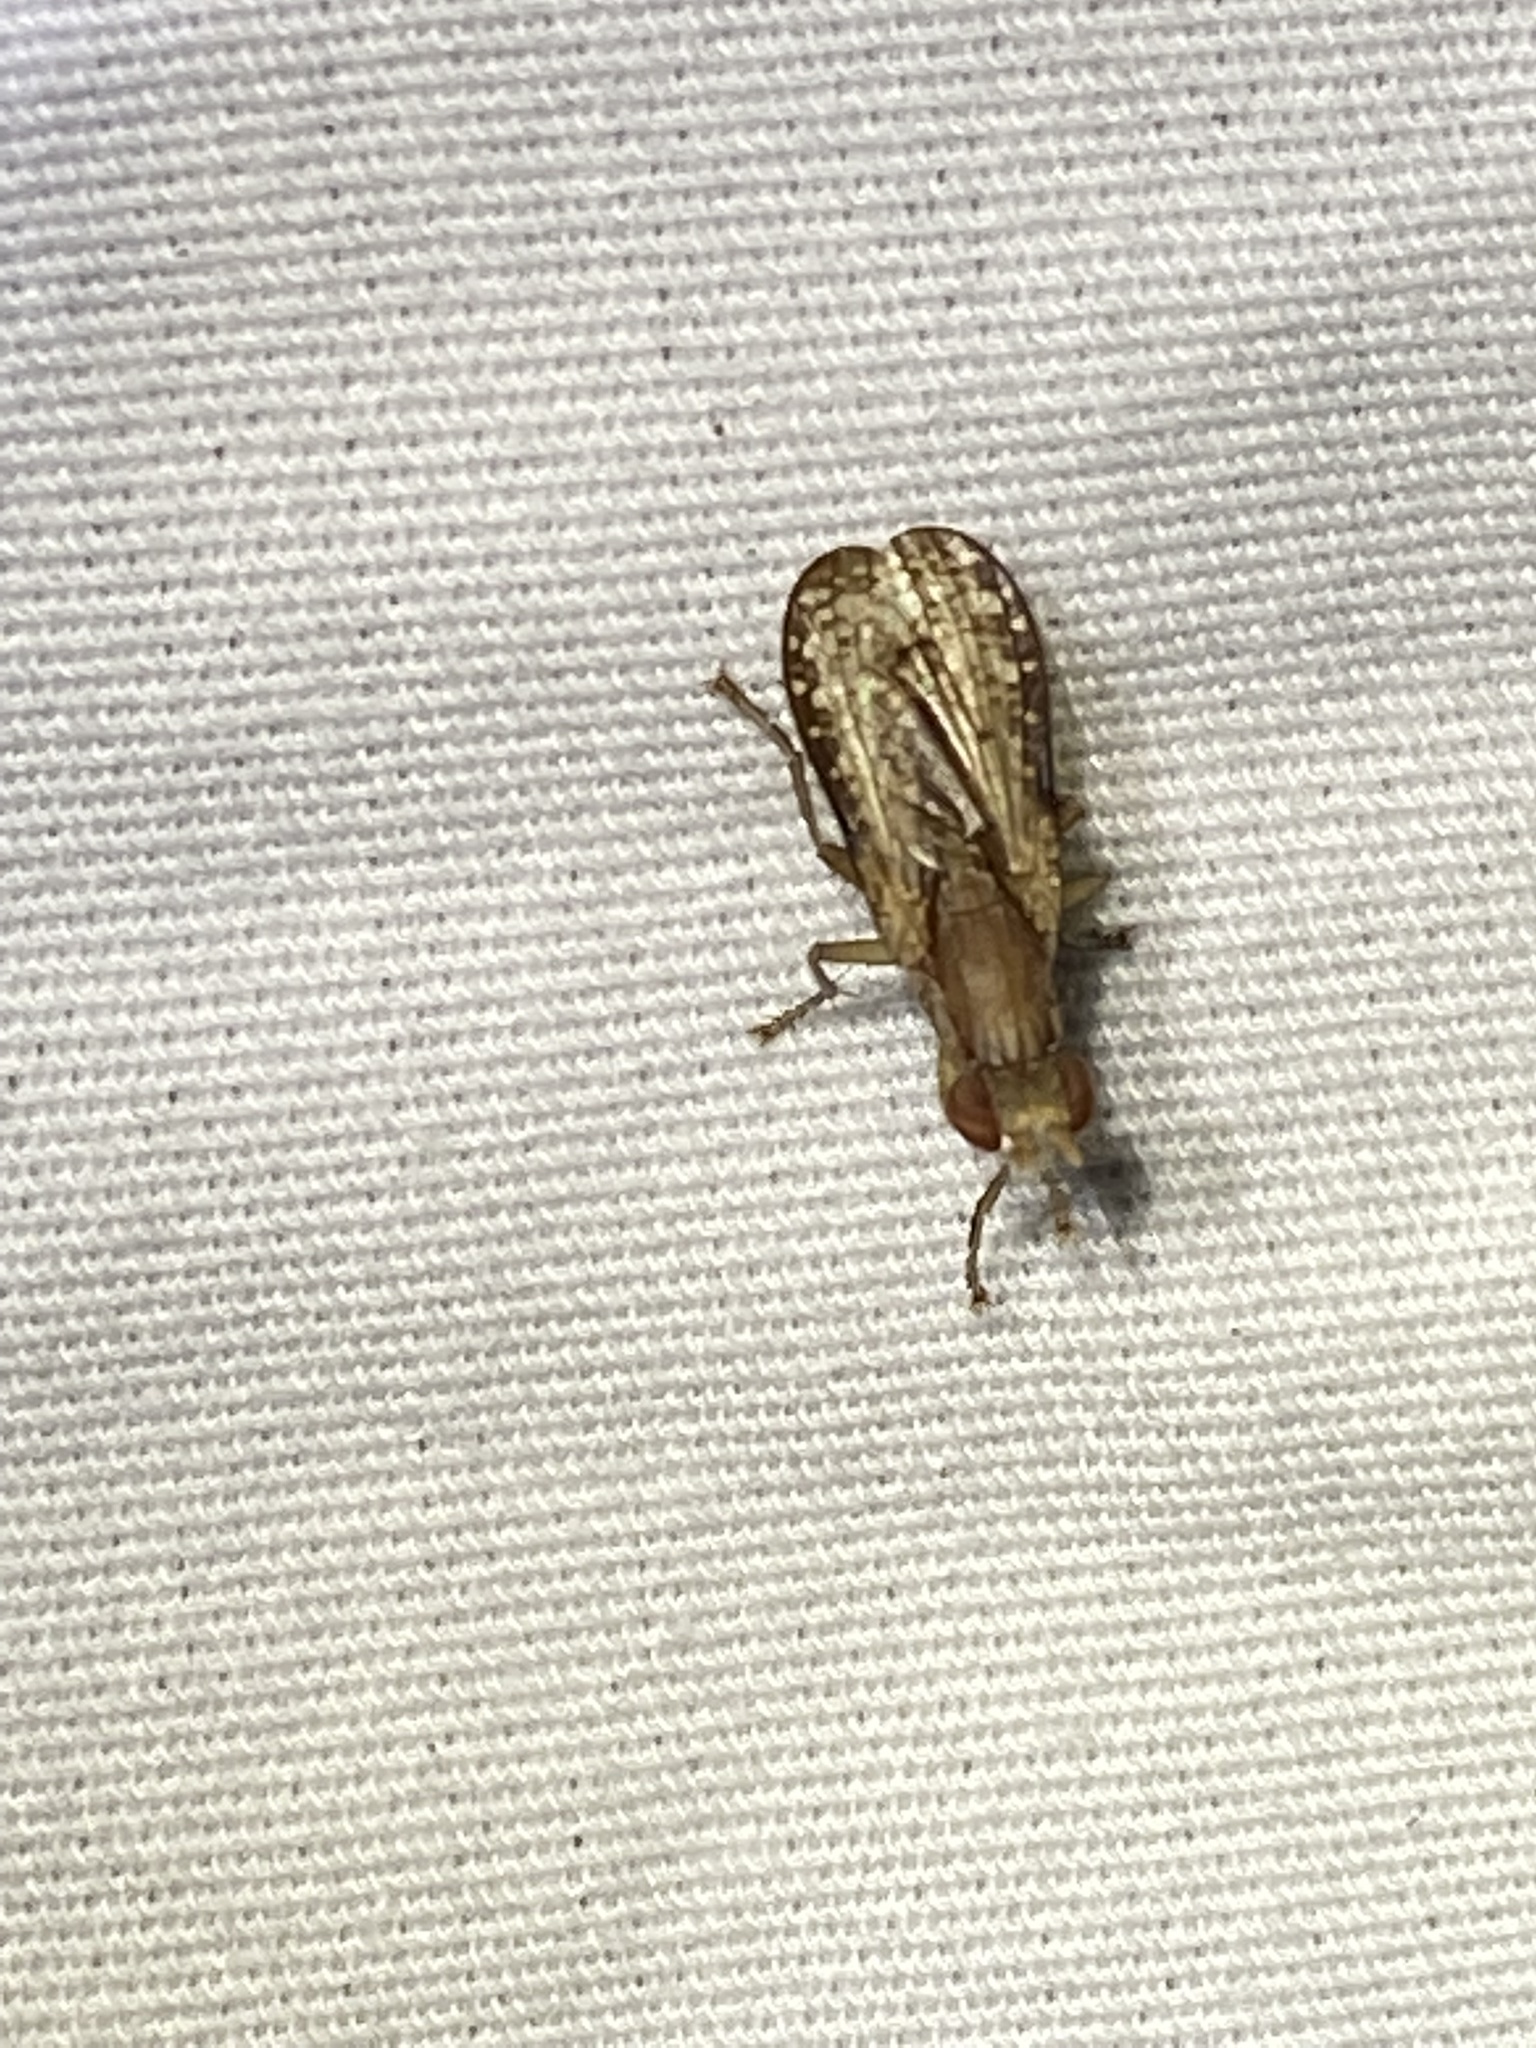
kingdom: Animalia
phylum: Arthropoda
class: Insecta
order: Diptera
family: Sciomyzidae
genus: Trypetoptera
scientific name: Trypetoptera canadensis
